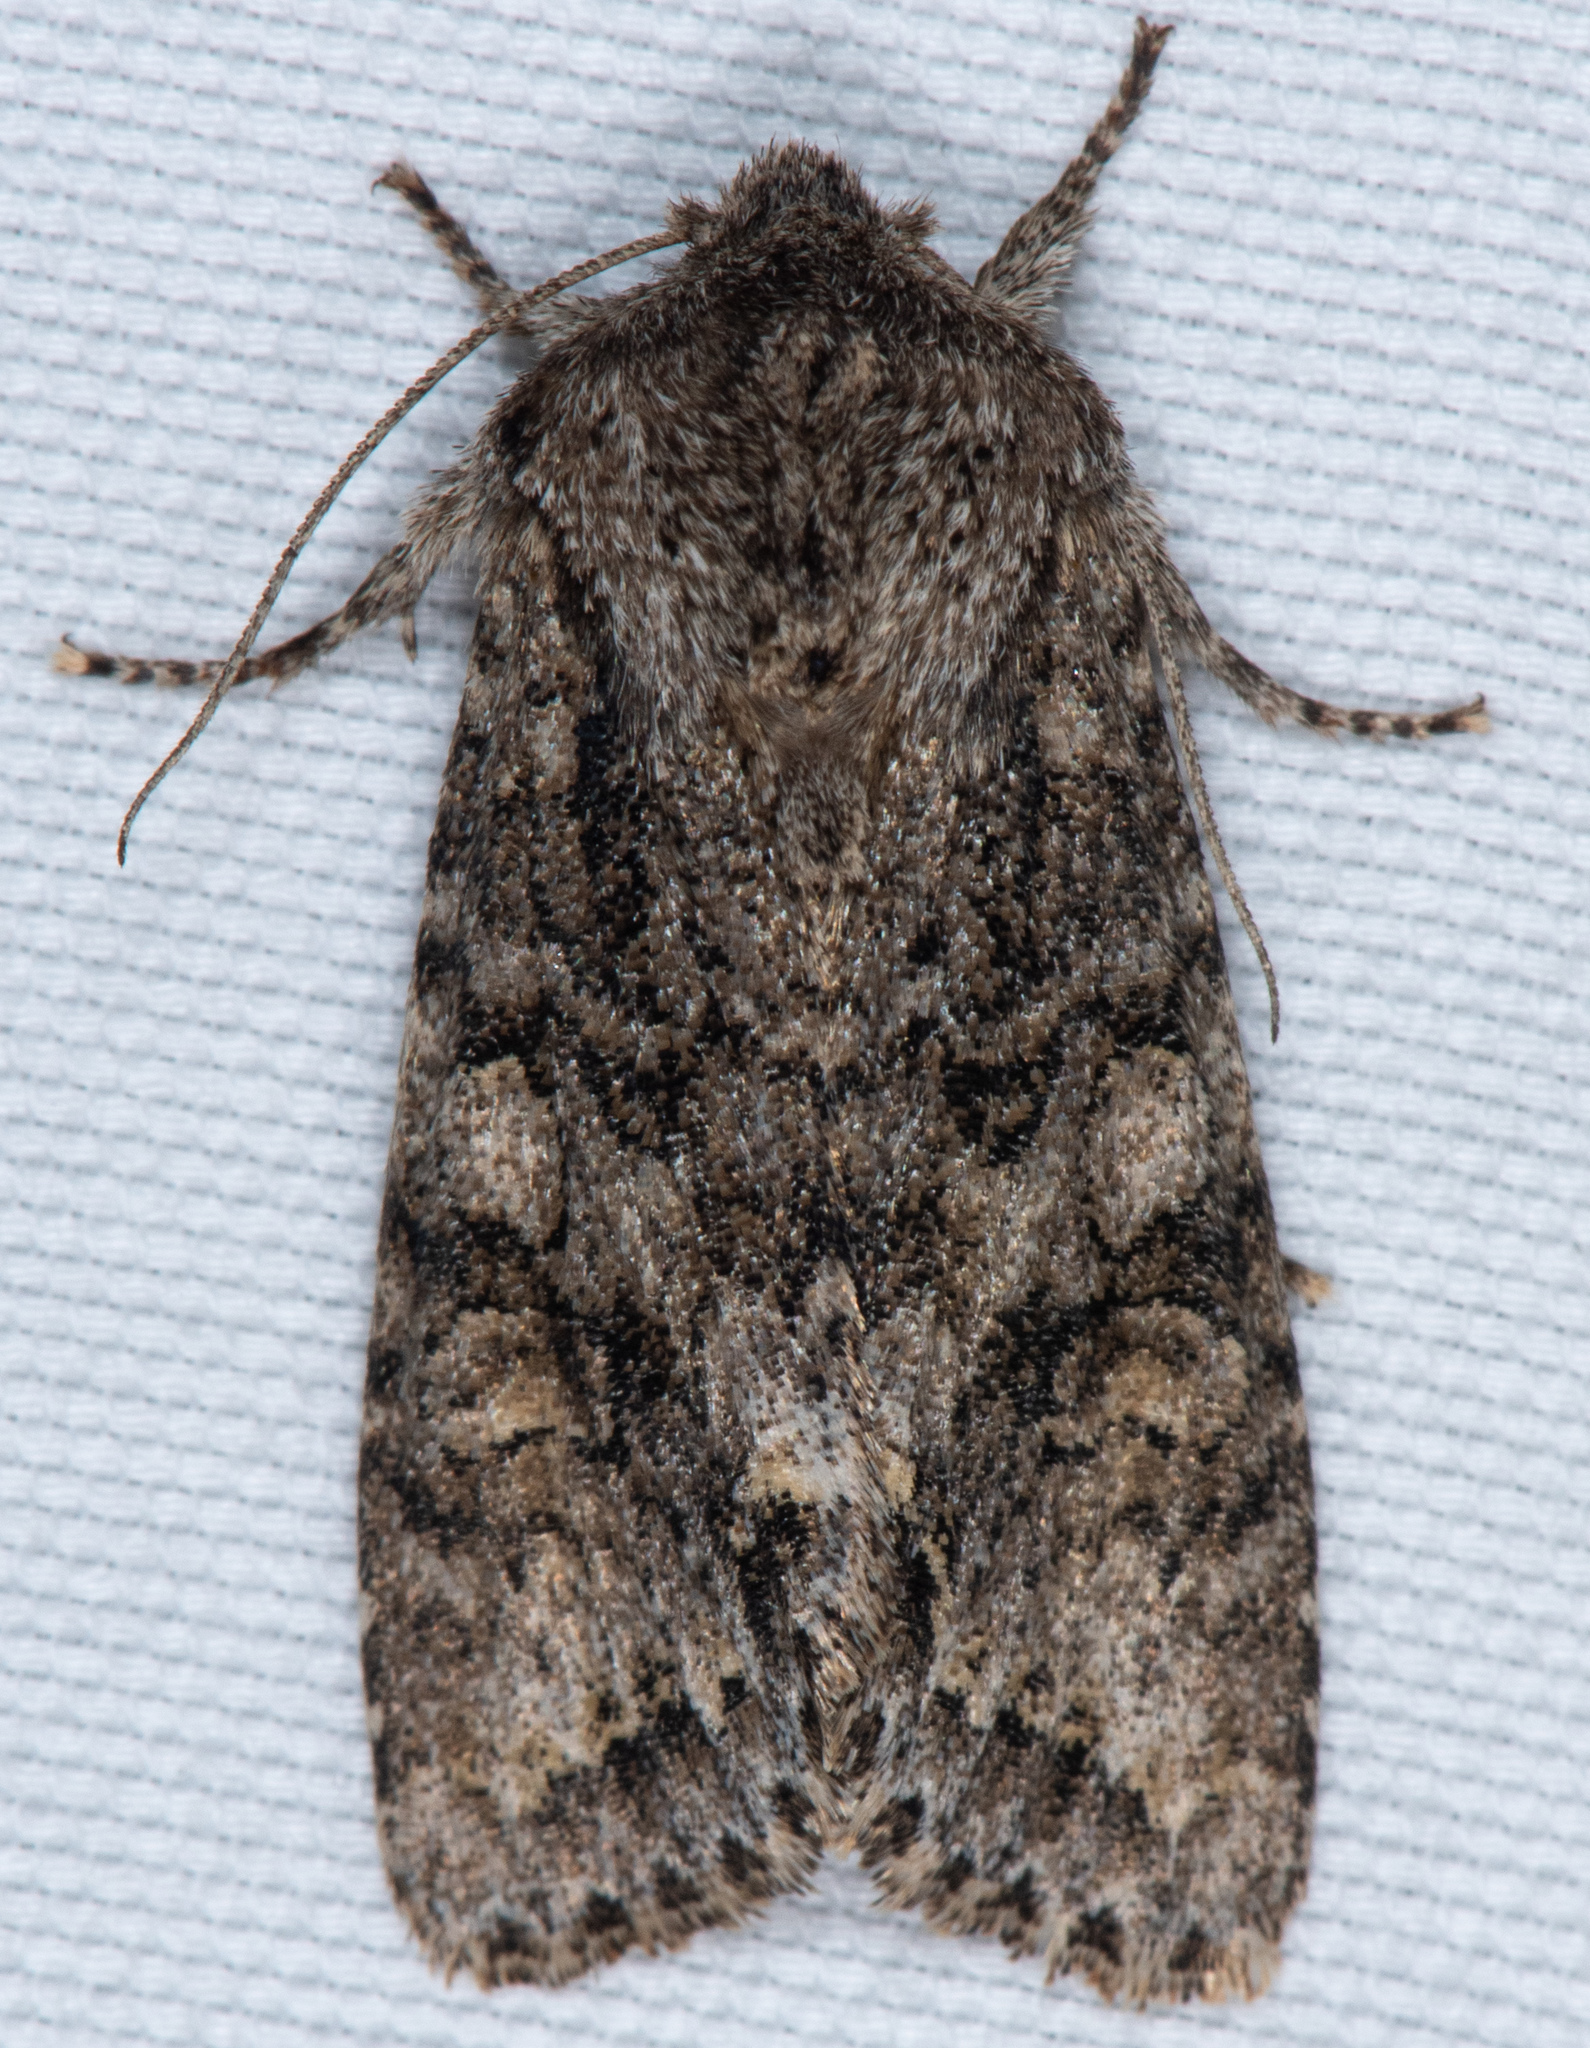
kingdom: Animalia
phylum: Arthropoda
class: Insecta
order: Lepidoptera
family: Noctuidae
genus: Egira
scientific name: Egira perlubens
